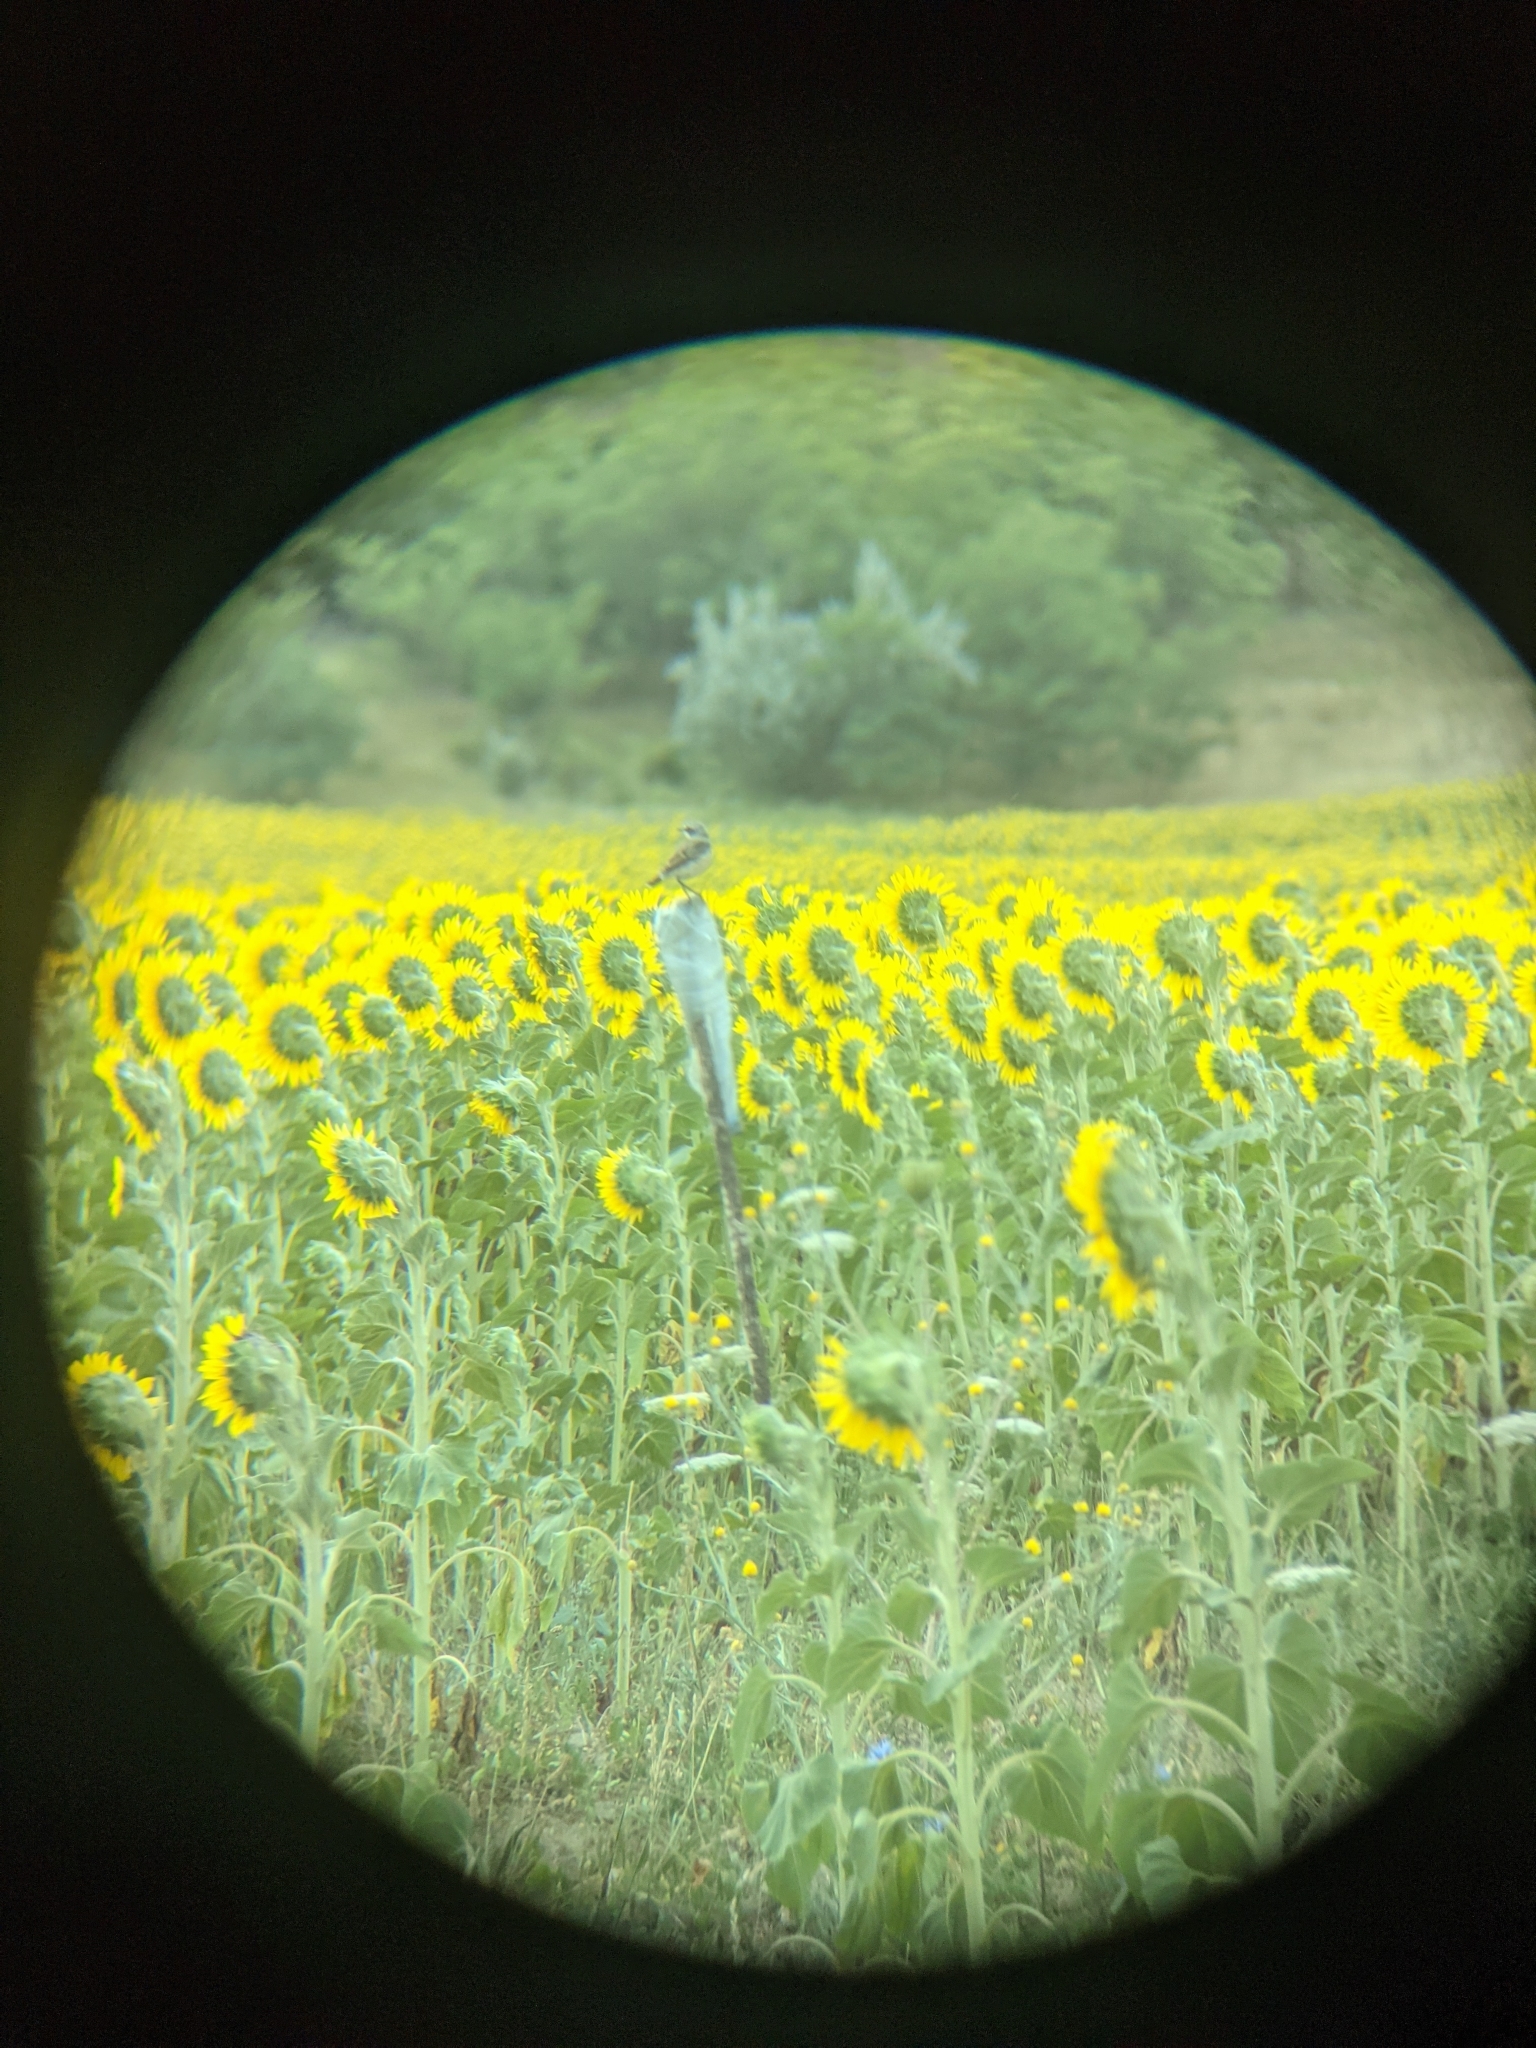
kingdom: Animalia
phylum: Chordata
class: Aves
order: Passeriformes
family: Muscicapidae
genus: Oenanthe
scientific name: Oenanthe oenanthe
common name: Northern wheatear
